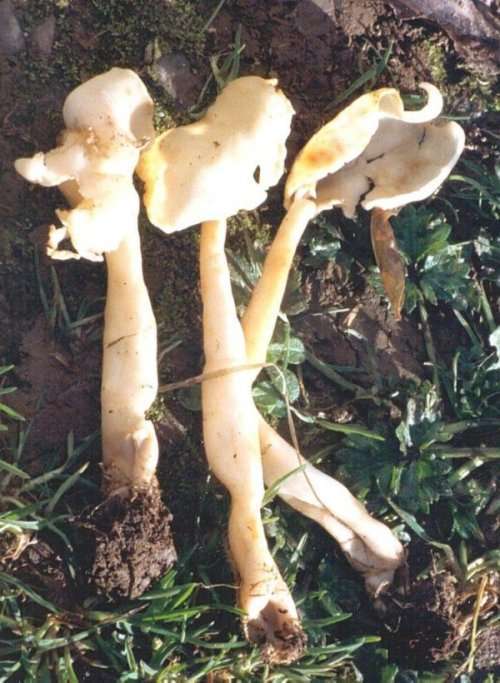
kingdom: Fungi
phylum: Ascomycota
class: Pezizomycetes
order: Pezizales
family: Helvellaceae
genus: Helvella
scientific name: Helvella elastica
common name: Elastic saddle
